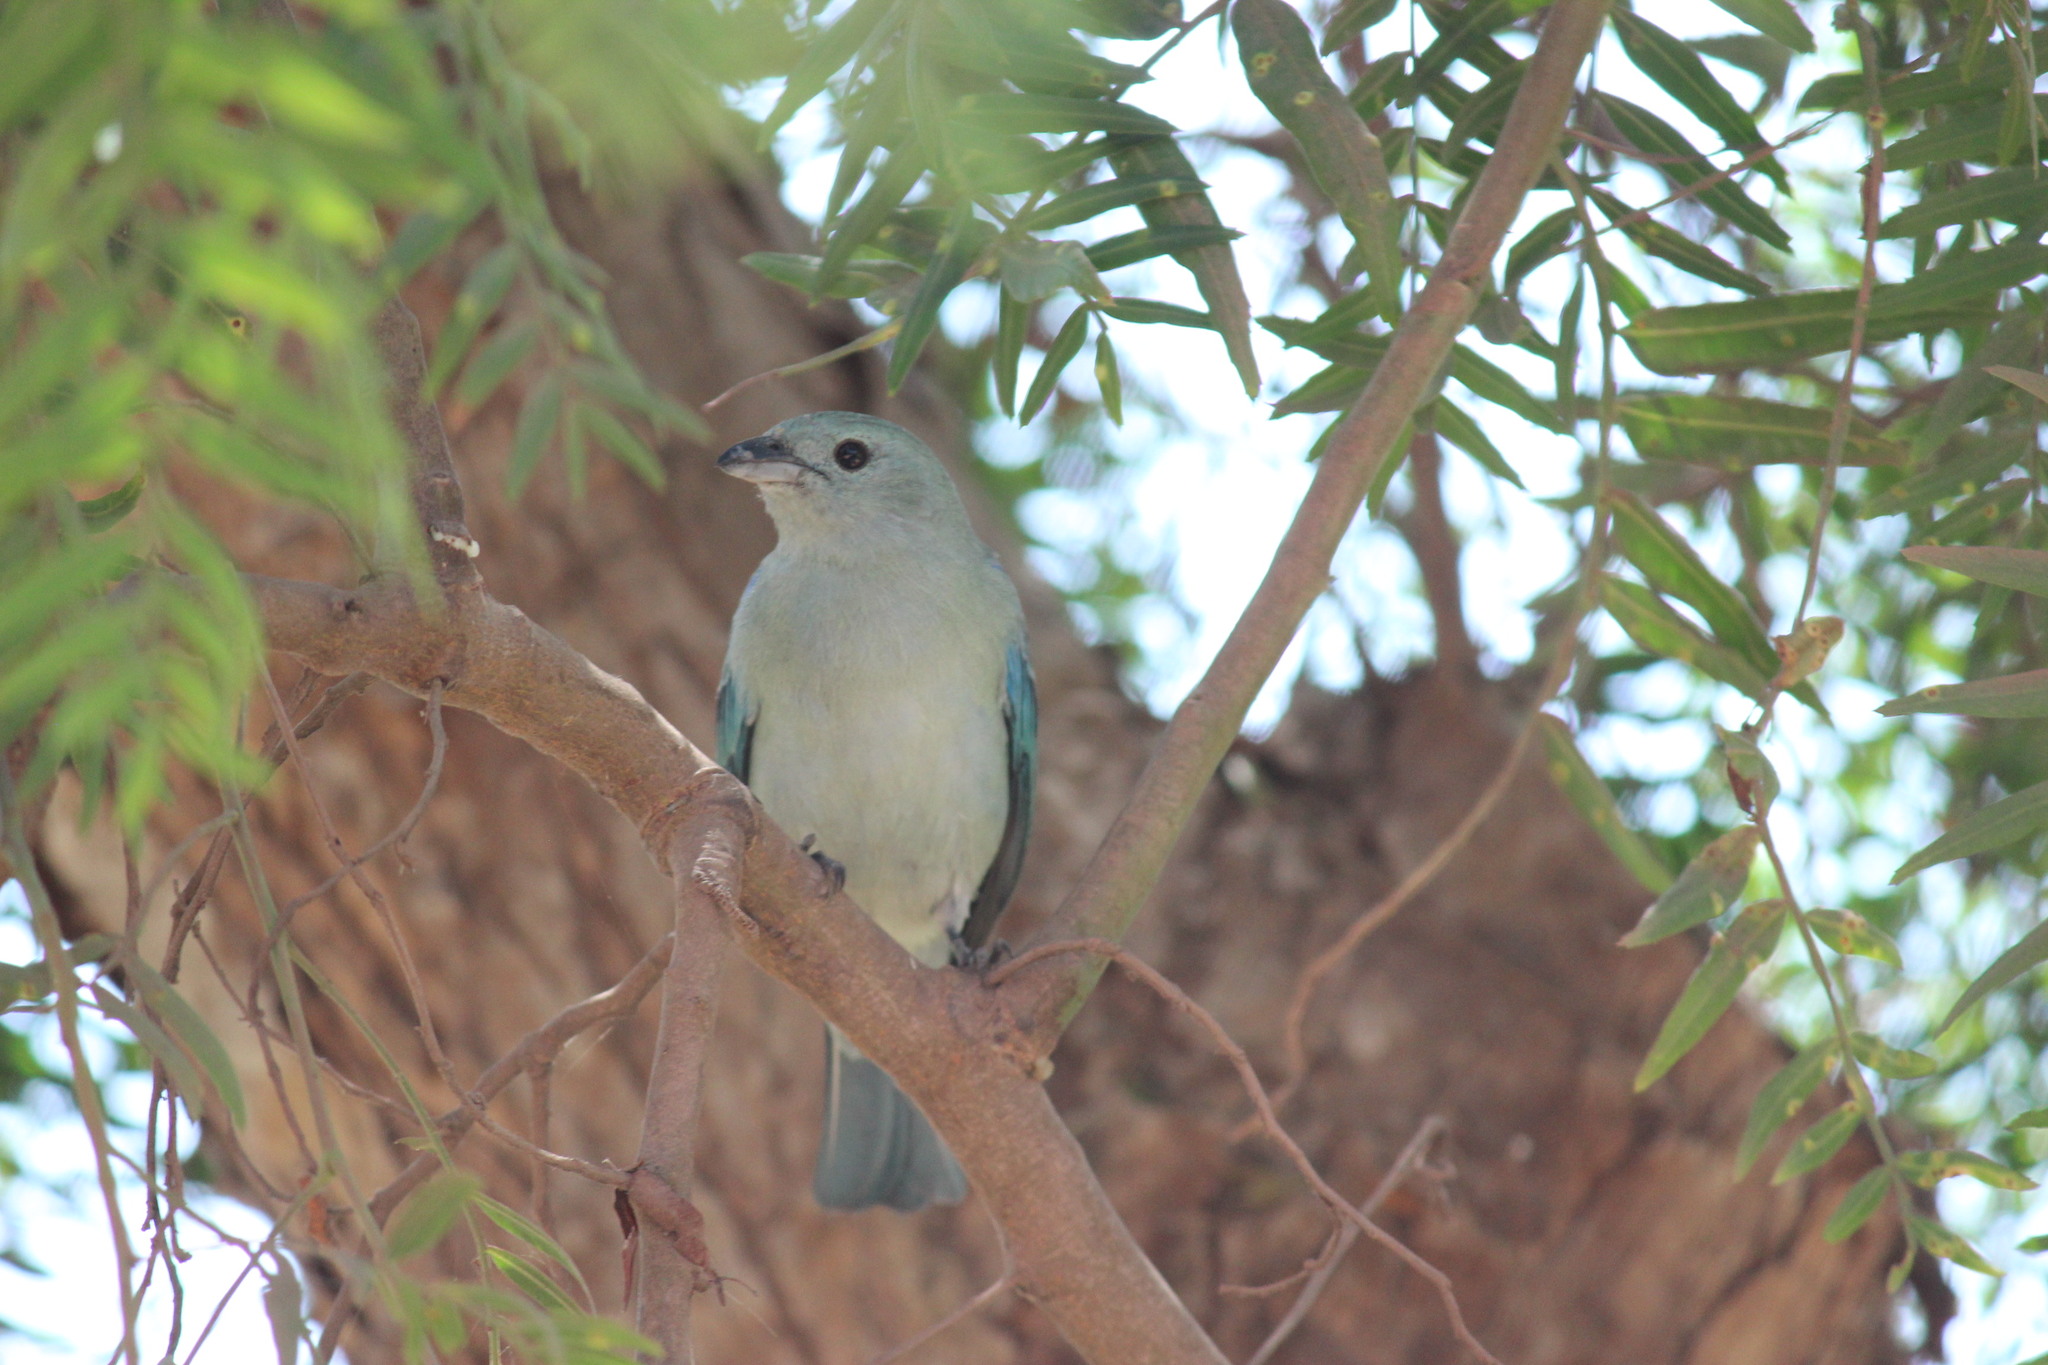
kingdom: Animalia
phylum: Chordata
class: Aves
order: Passeriformes
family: Thraupidae
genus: Thraupis
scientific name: Thraupis episcopus
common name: Blue-grey tanager
